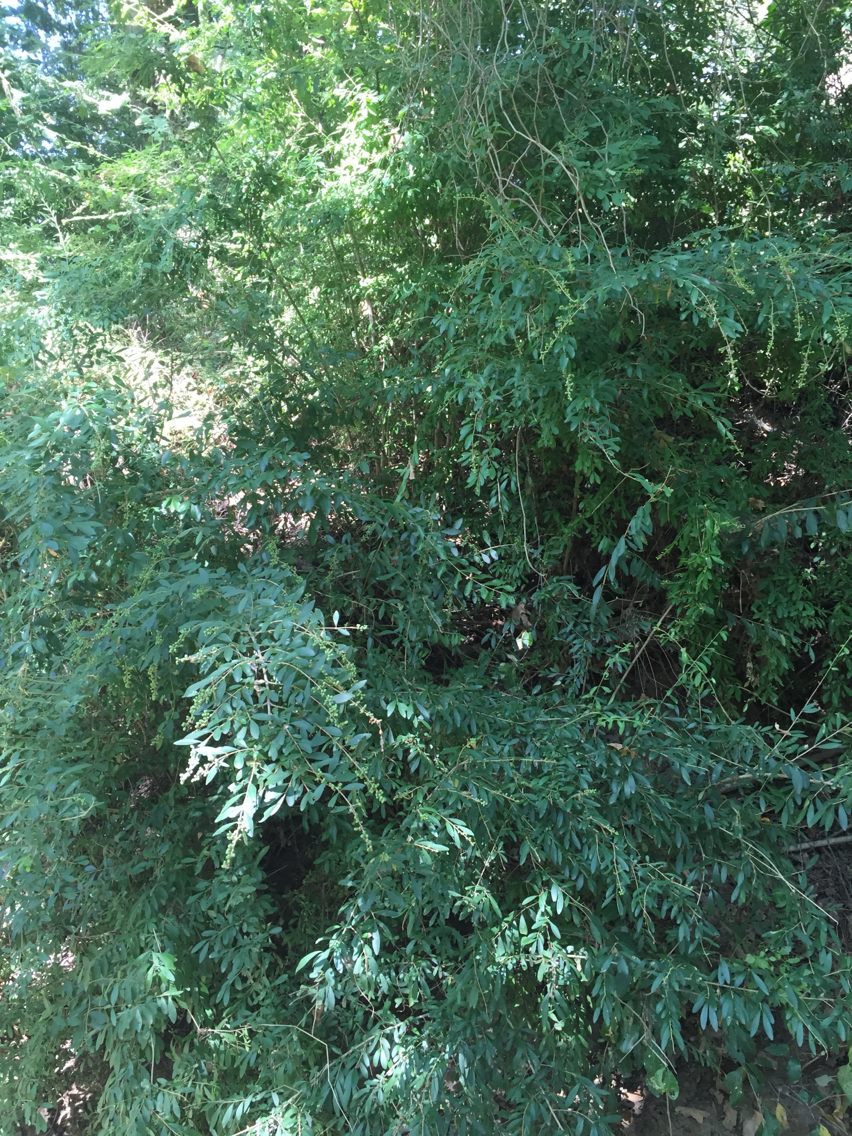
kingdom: Plantae
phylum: Tracheophyta
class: Magnoliopsida
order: Lamiales
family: Oleaceae
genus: Ligustrum
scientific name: Ligustrum quihoui
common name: Waxyleaf privet
